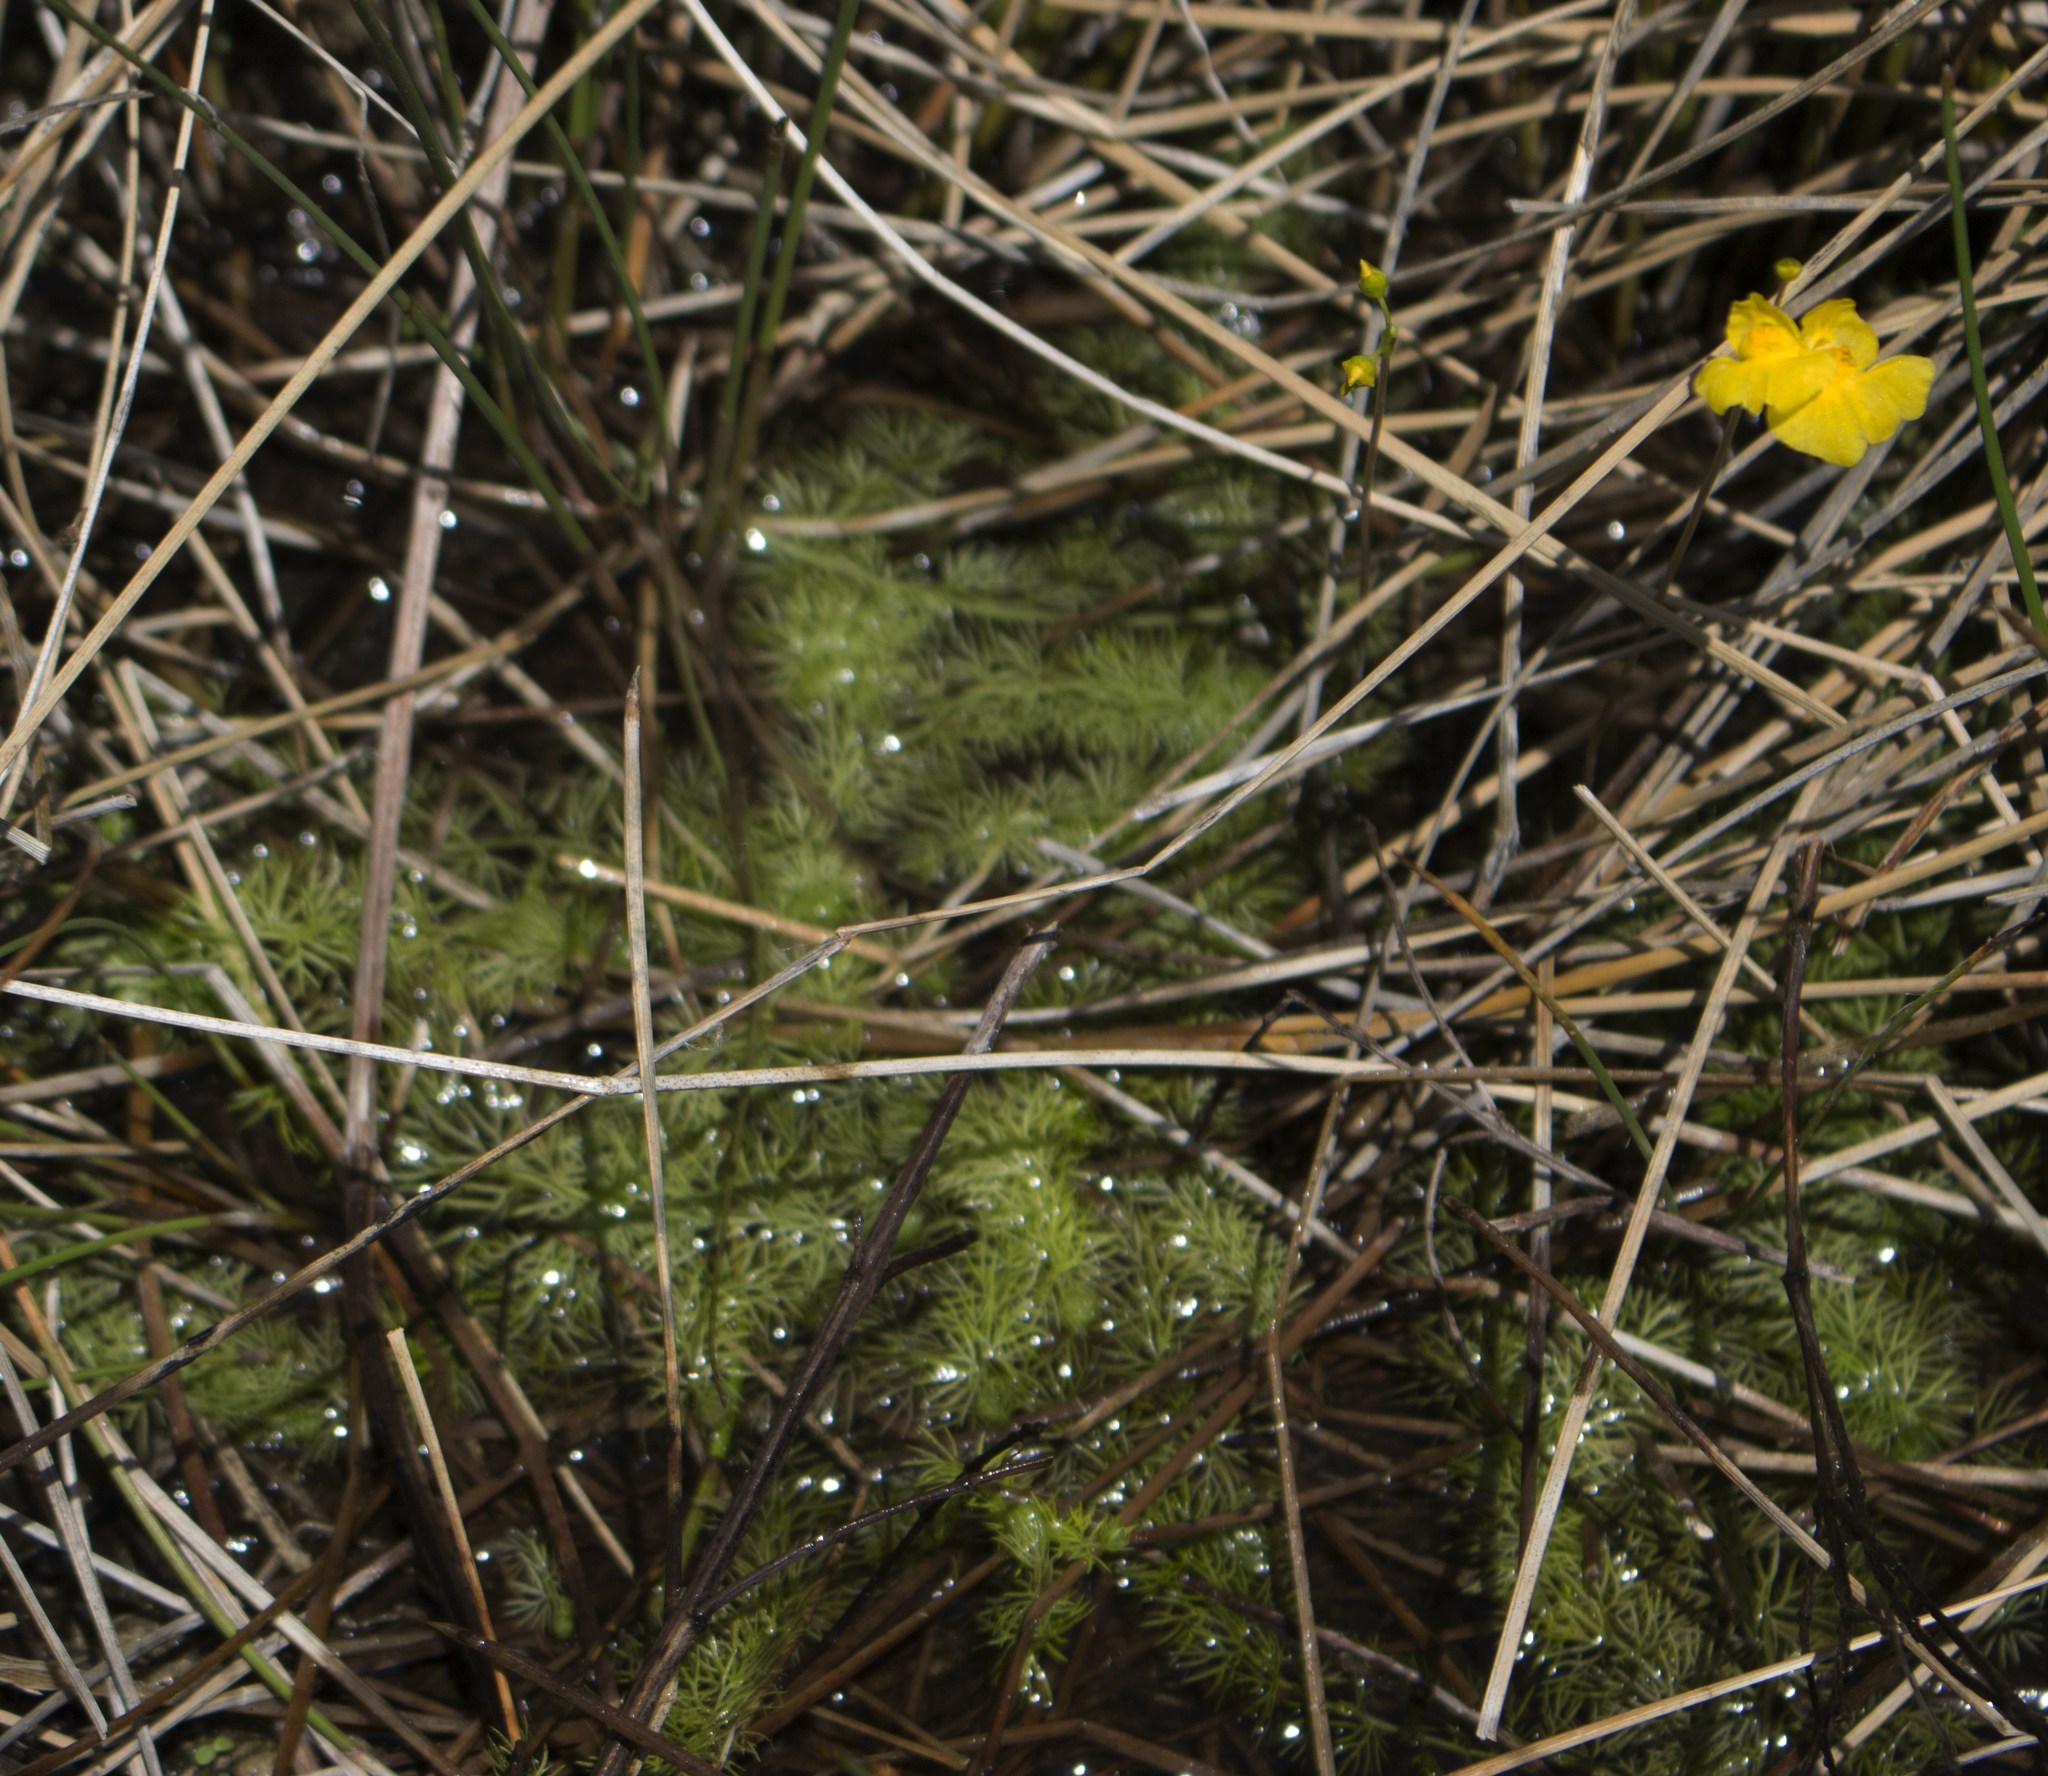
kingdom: Plantae
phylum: Tracheophyta
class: Magnoliopsida
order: Lamiales
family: Lentibulariaceae
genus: Utricularia
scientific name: Utricularia intermedia
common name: Intermediate bladderwort
